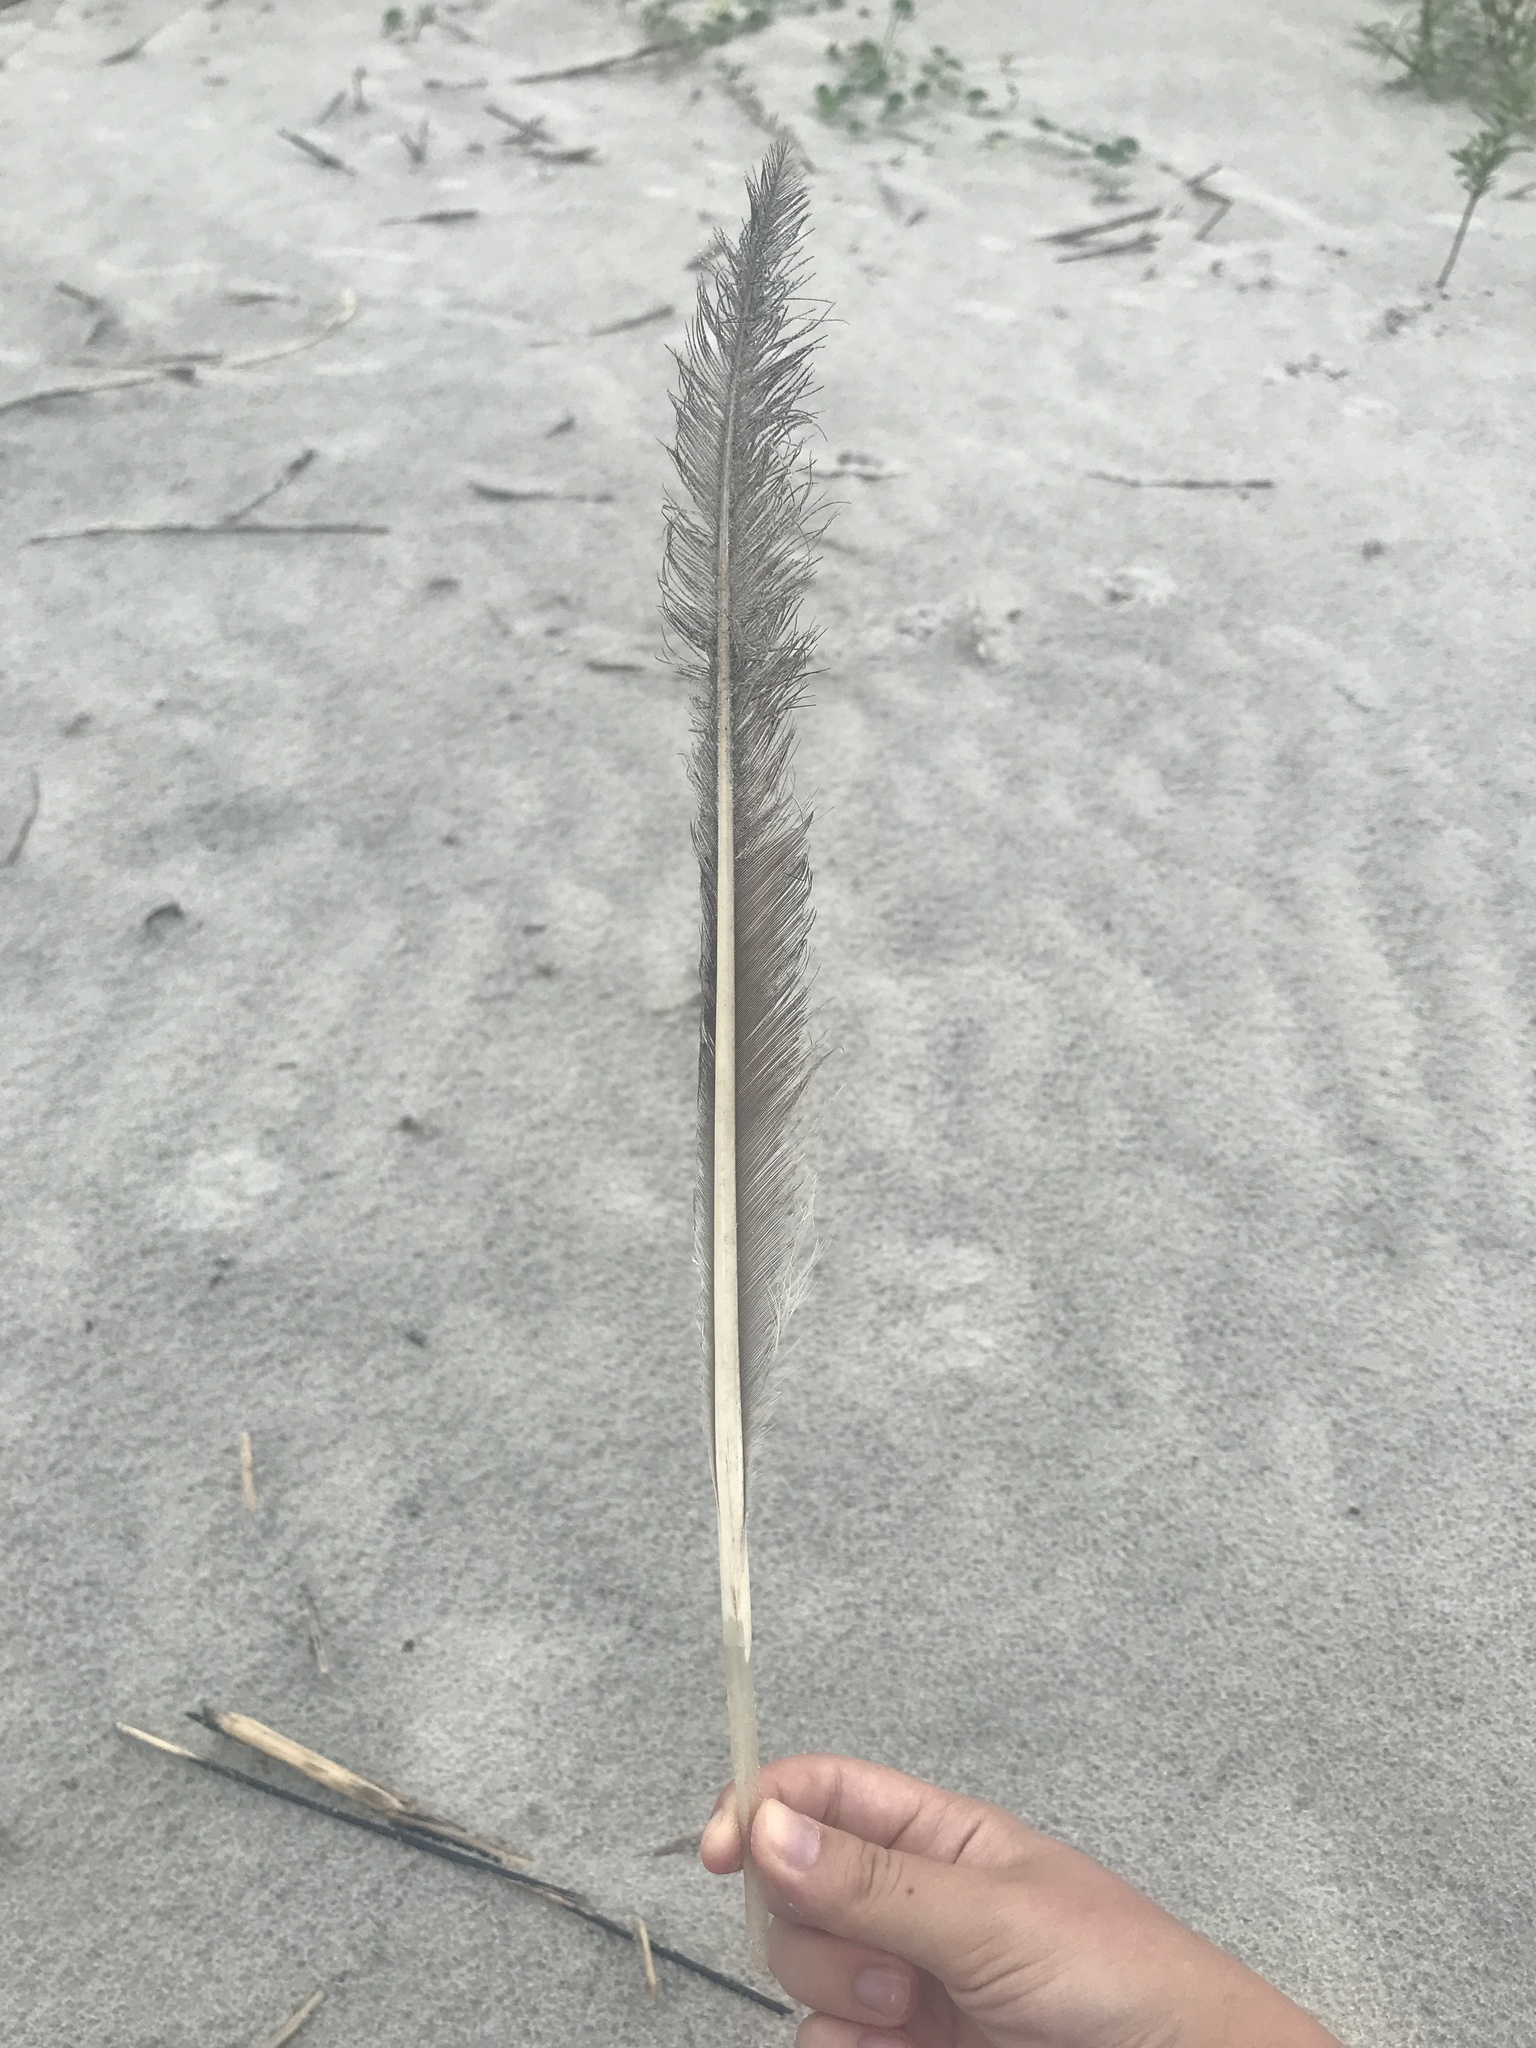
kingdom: Animalia
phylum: Chordata
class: Aves
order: Pelecaniformes
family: Pelecanidae
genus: Pelecanus
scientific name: Pelecanus occidentalis
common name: Brown pelican
